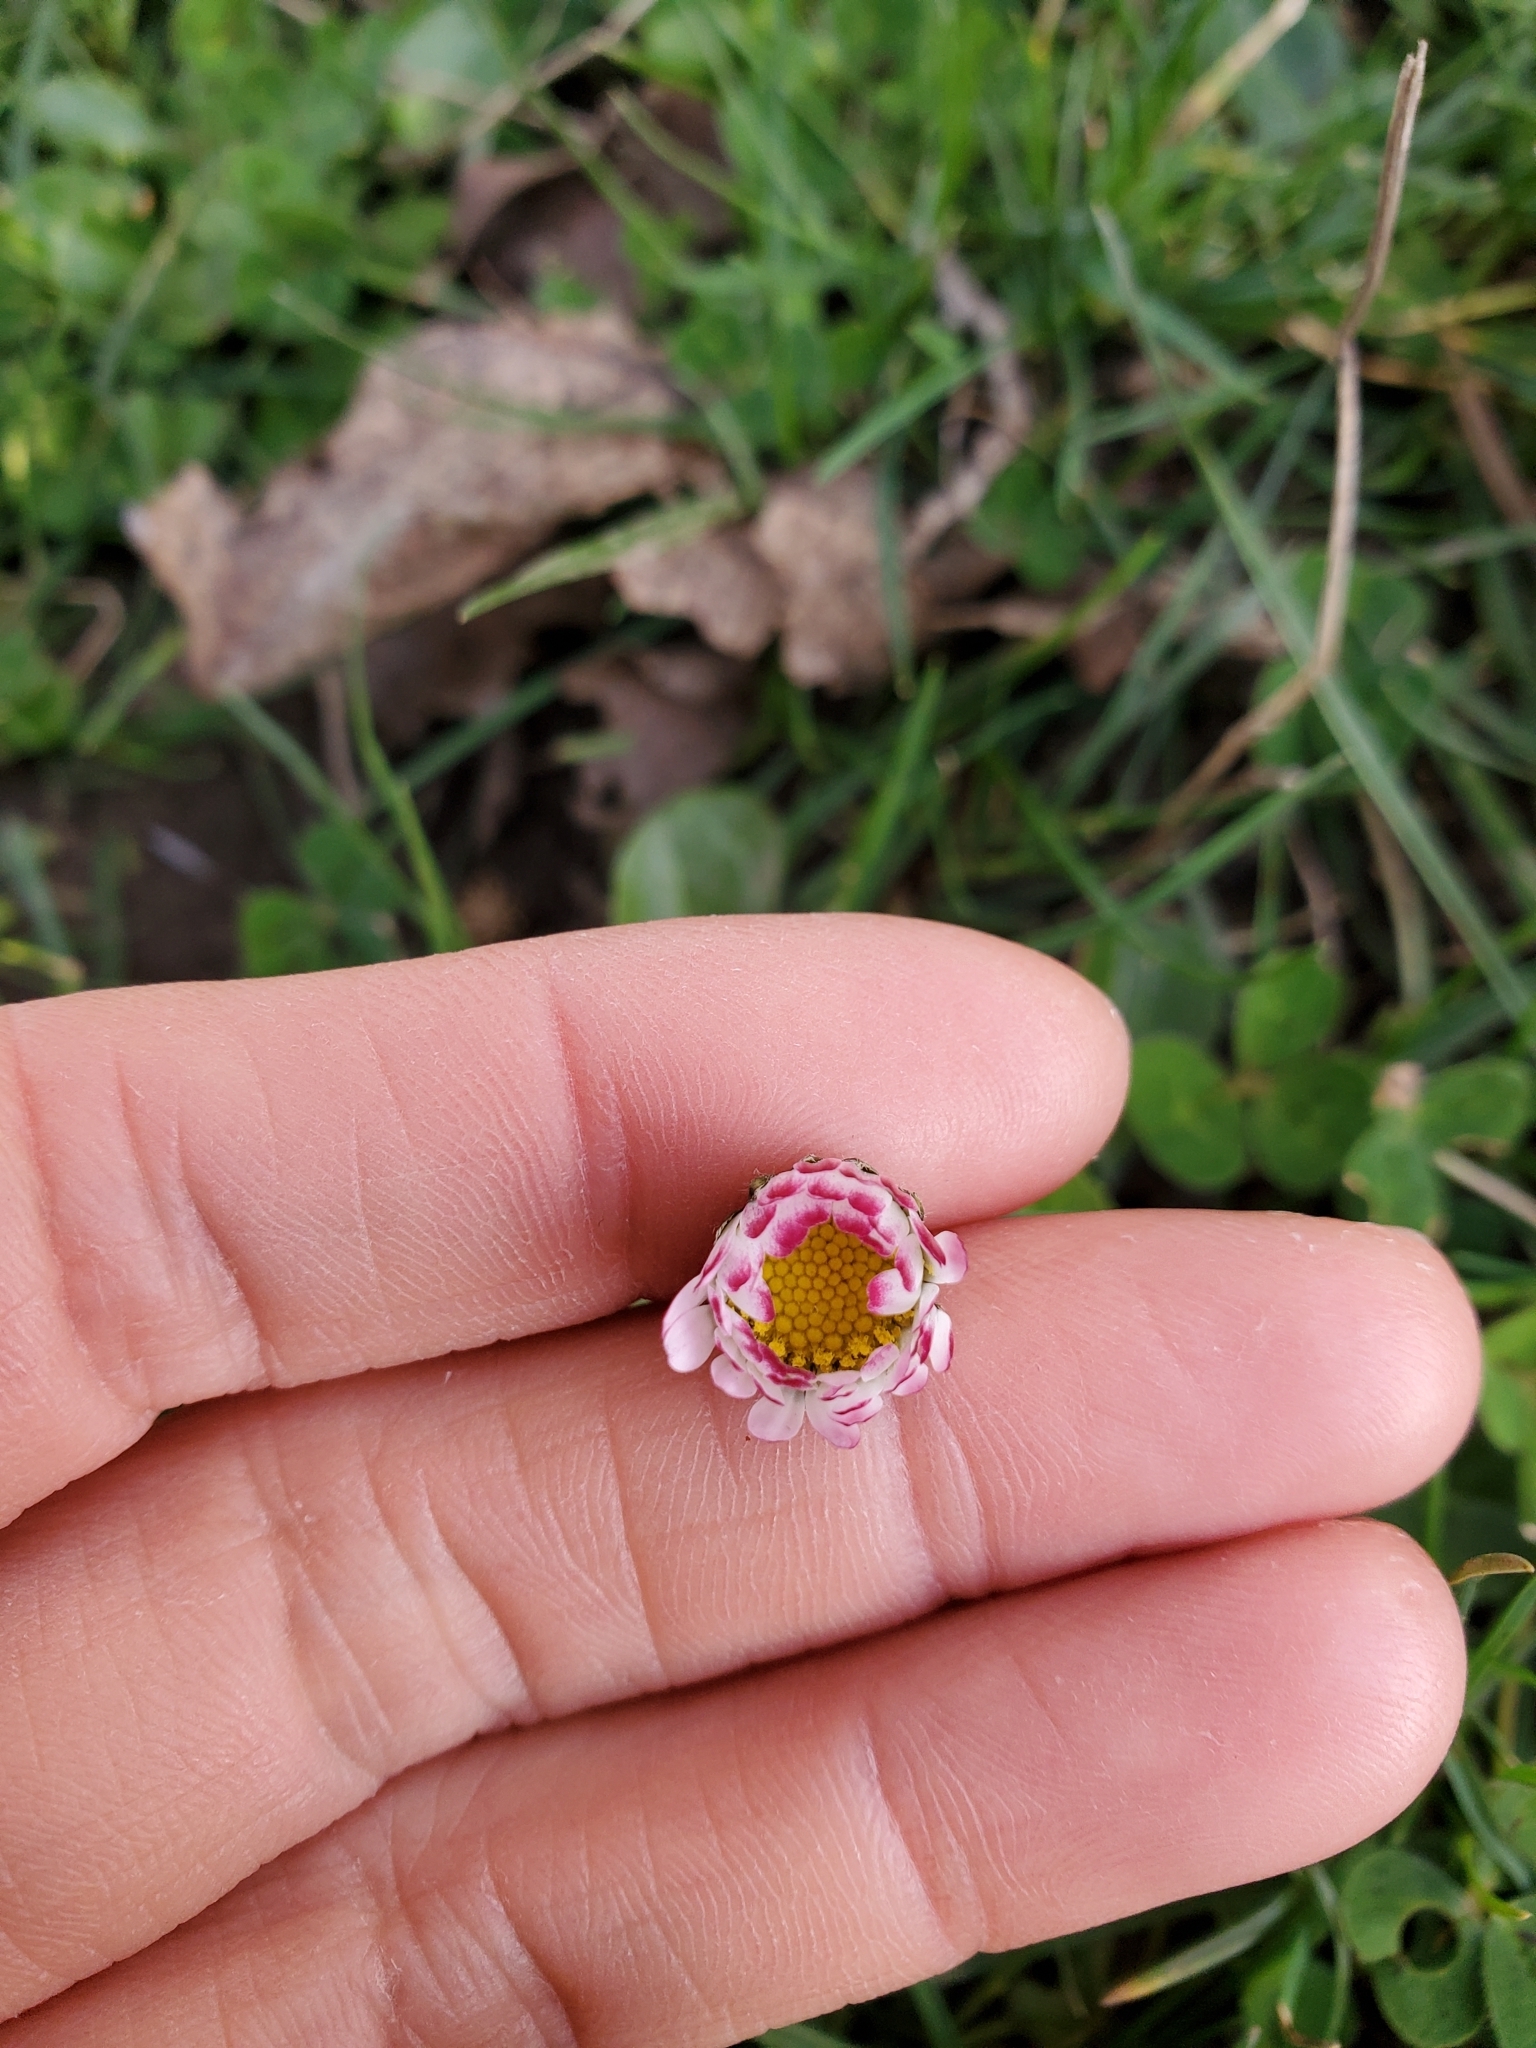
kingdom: Plantae
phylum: Tracheophyta
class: Magnoliopsida
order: Asterales
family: Asteraceae
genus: Bellis
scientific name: Bellis perennis
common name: Lawndaisy
